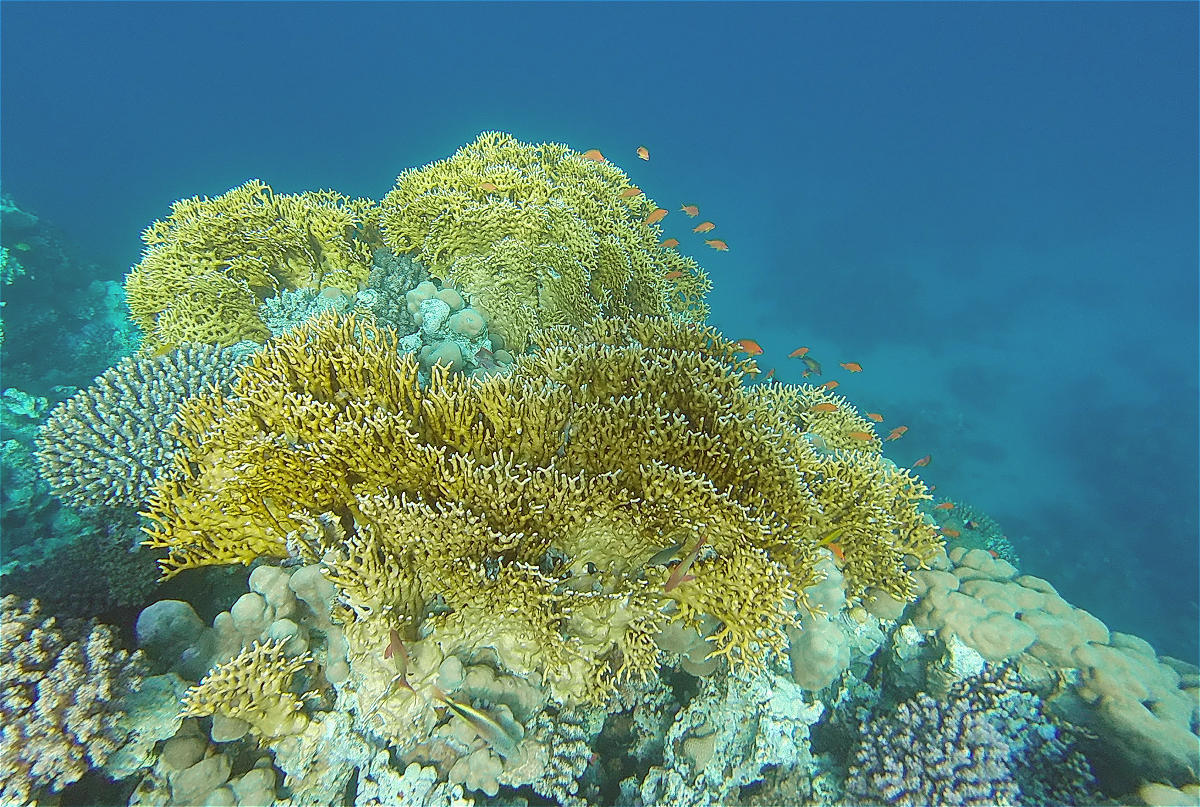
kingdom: Animalia
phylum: Cnidaria
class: Hydrozoa
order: Anthoathecata
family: Milleporidae
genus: Millepora
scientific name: Millepora dichotoma
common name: Ramified fire coral
